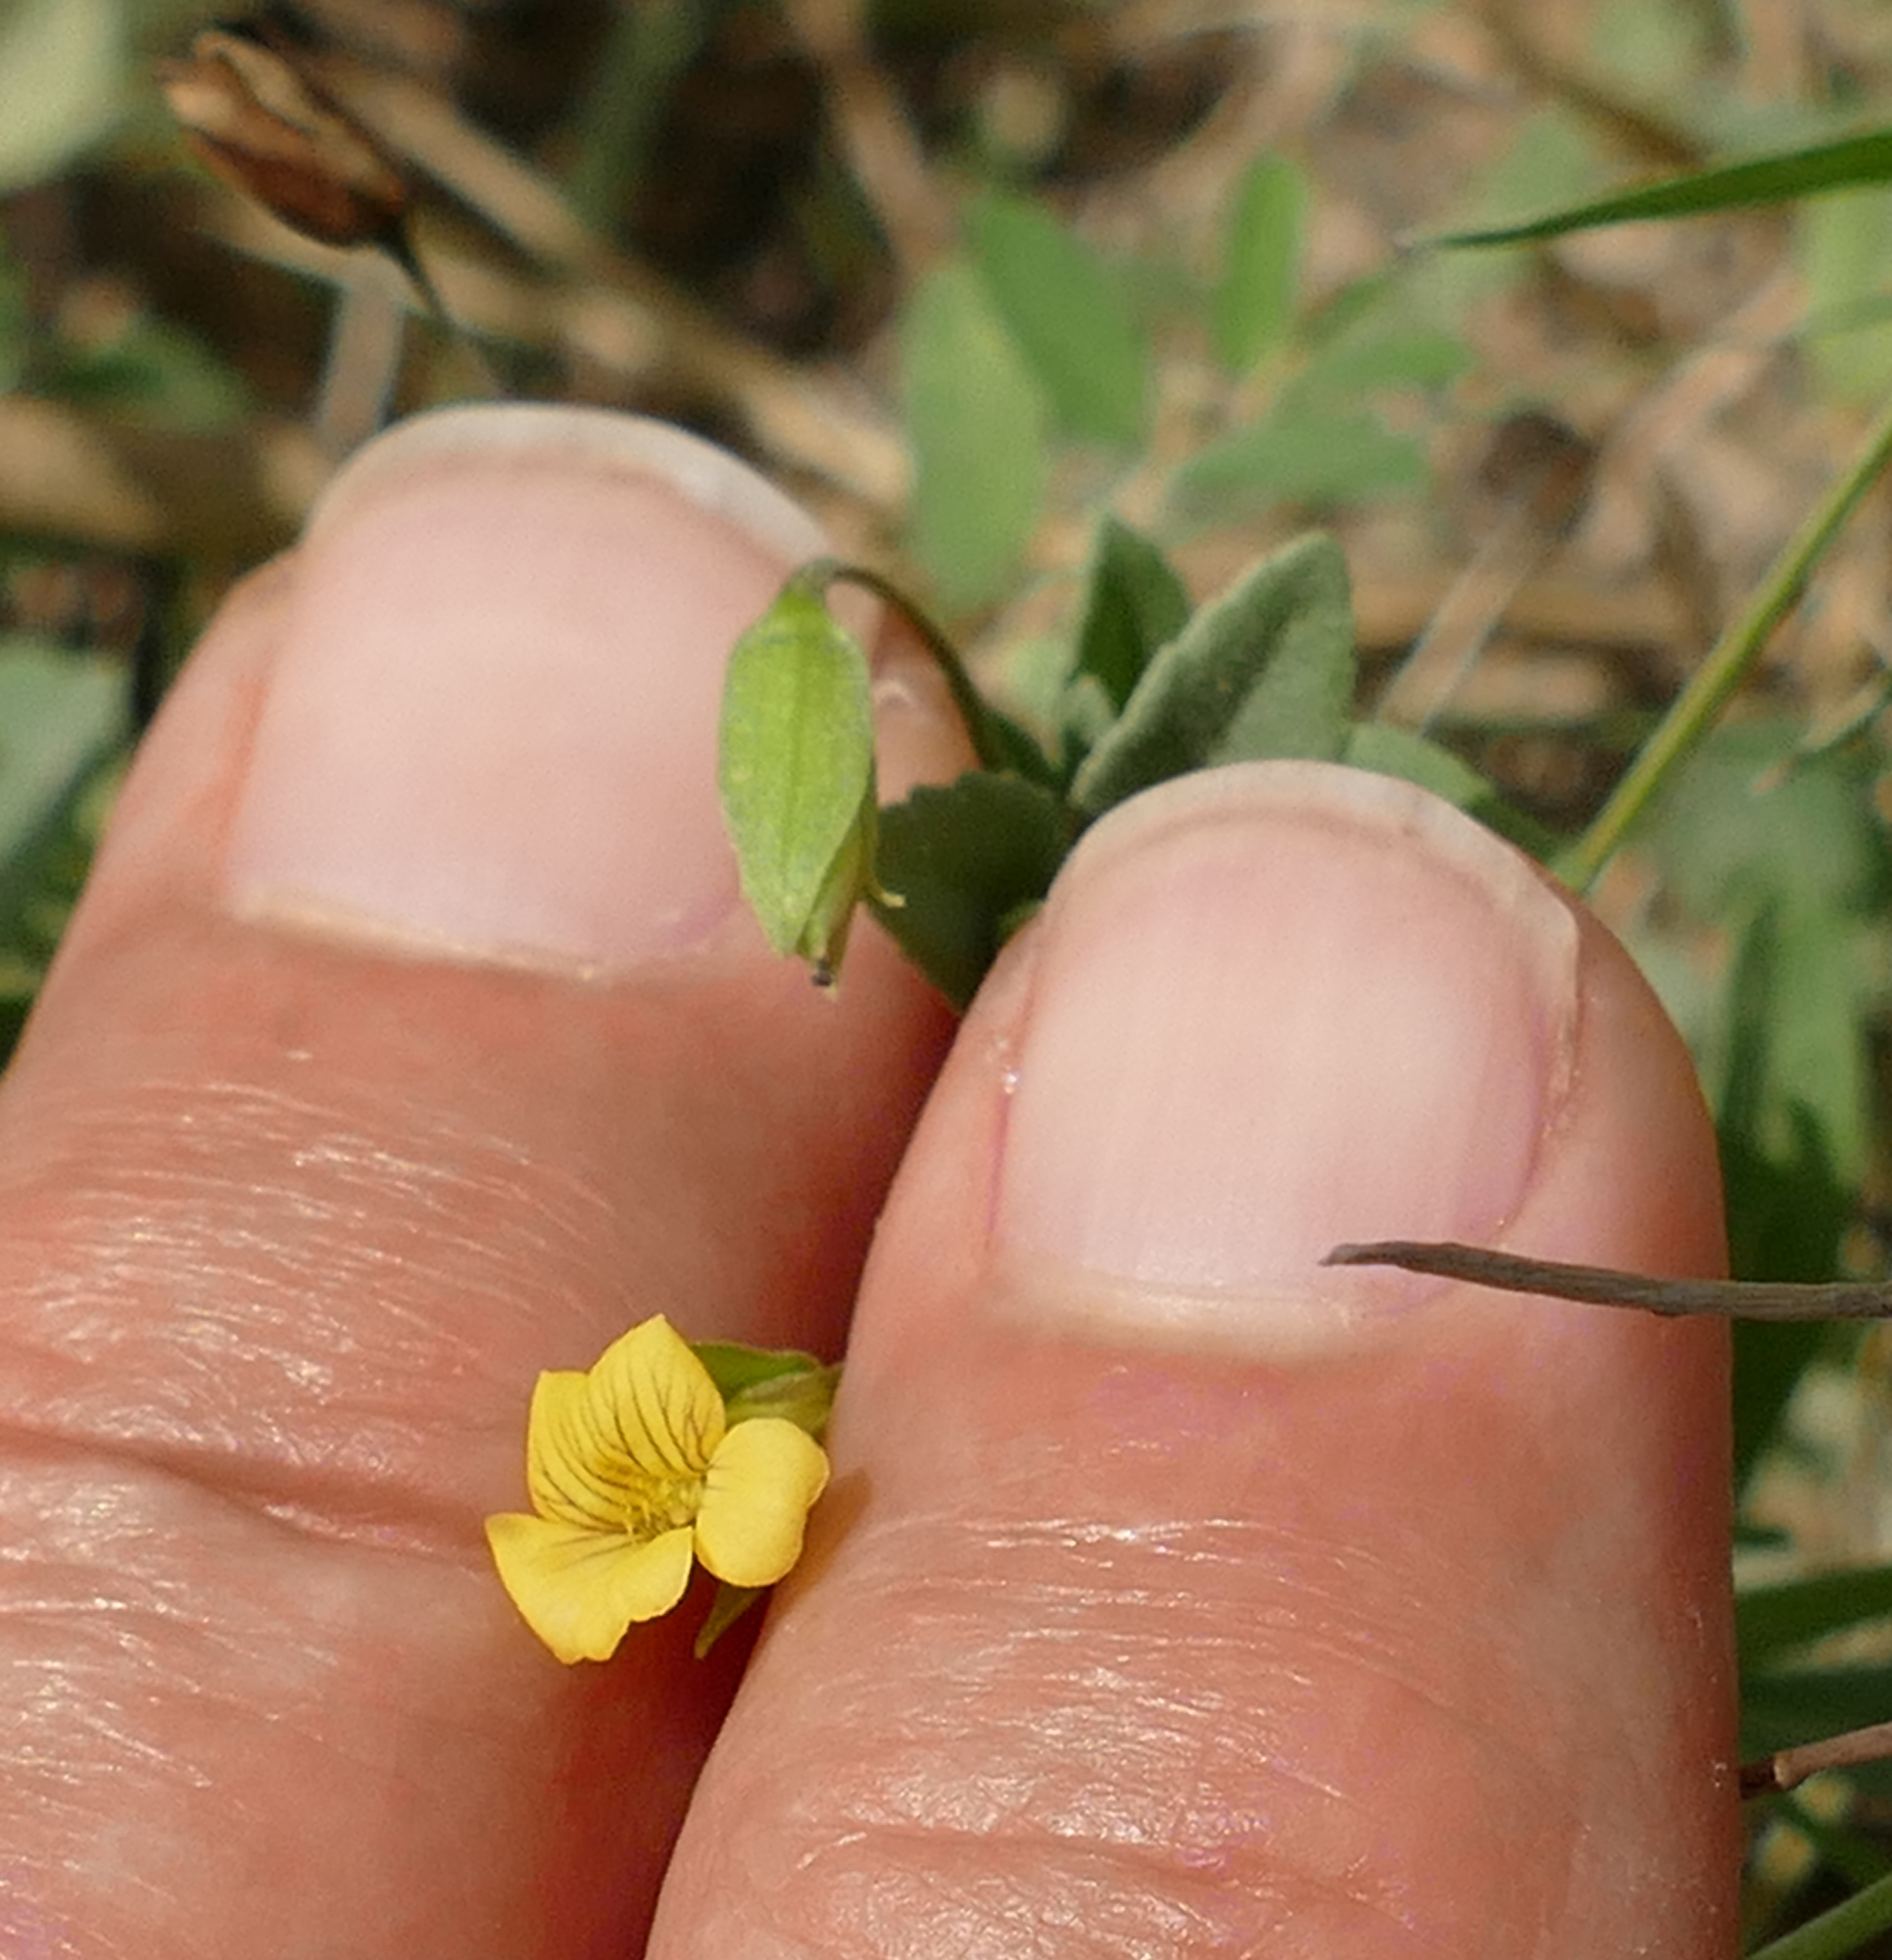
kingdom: Plantae
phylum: Tracheophyta
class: Magnoliopsida
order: Lamiales
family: Plantaginaceae
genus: Mecardonia
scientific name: Mecardonia procumbens
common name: Baby jump-up
